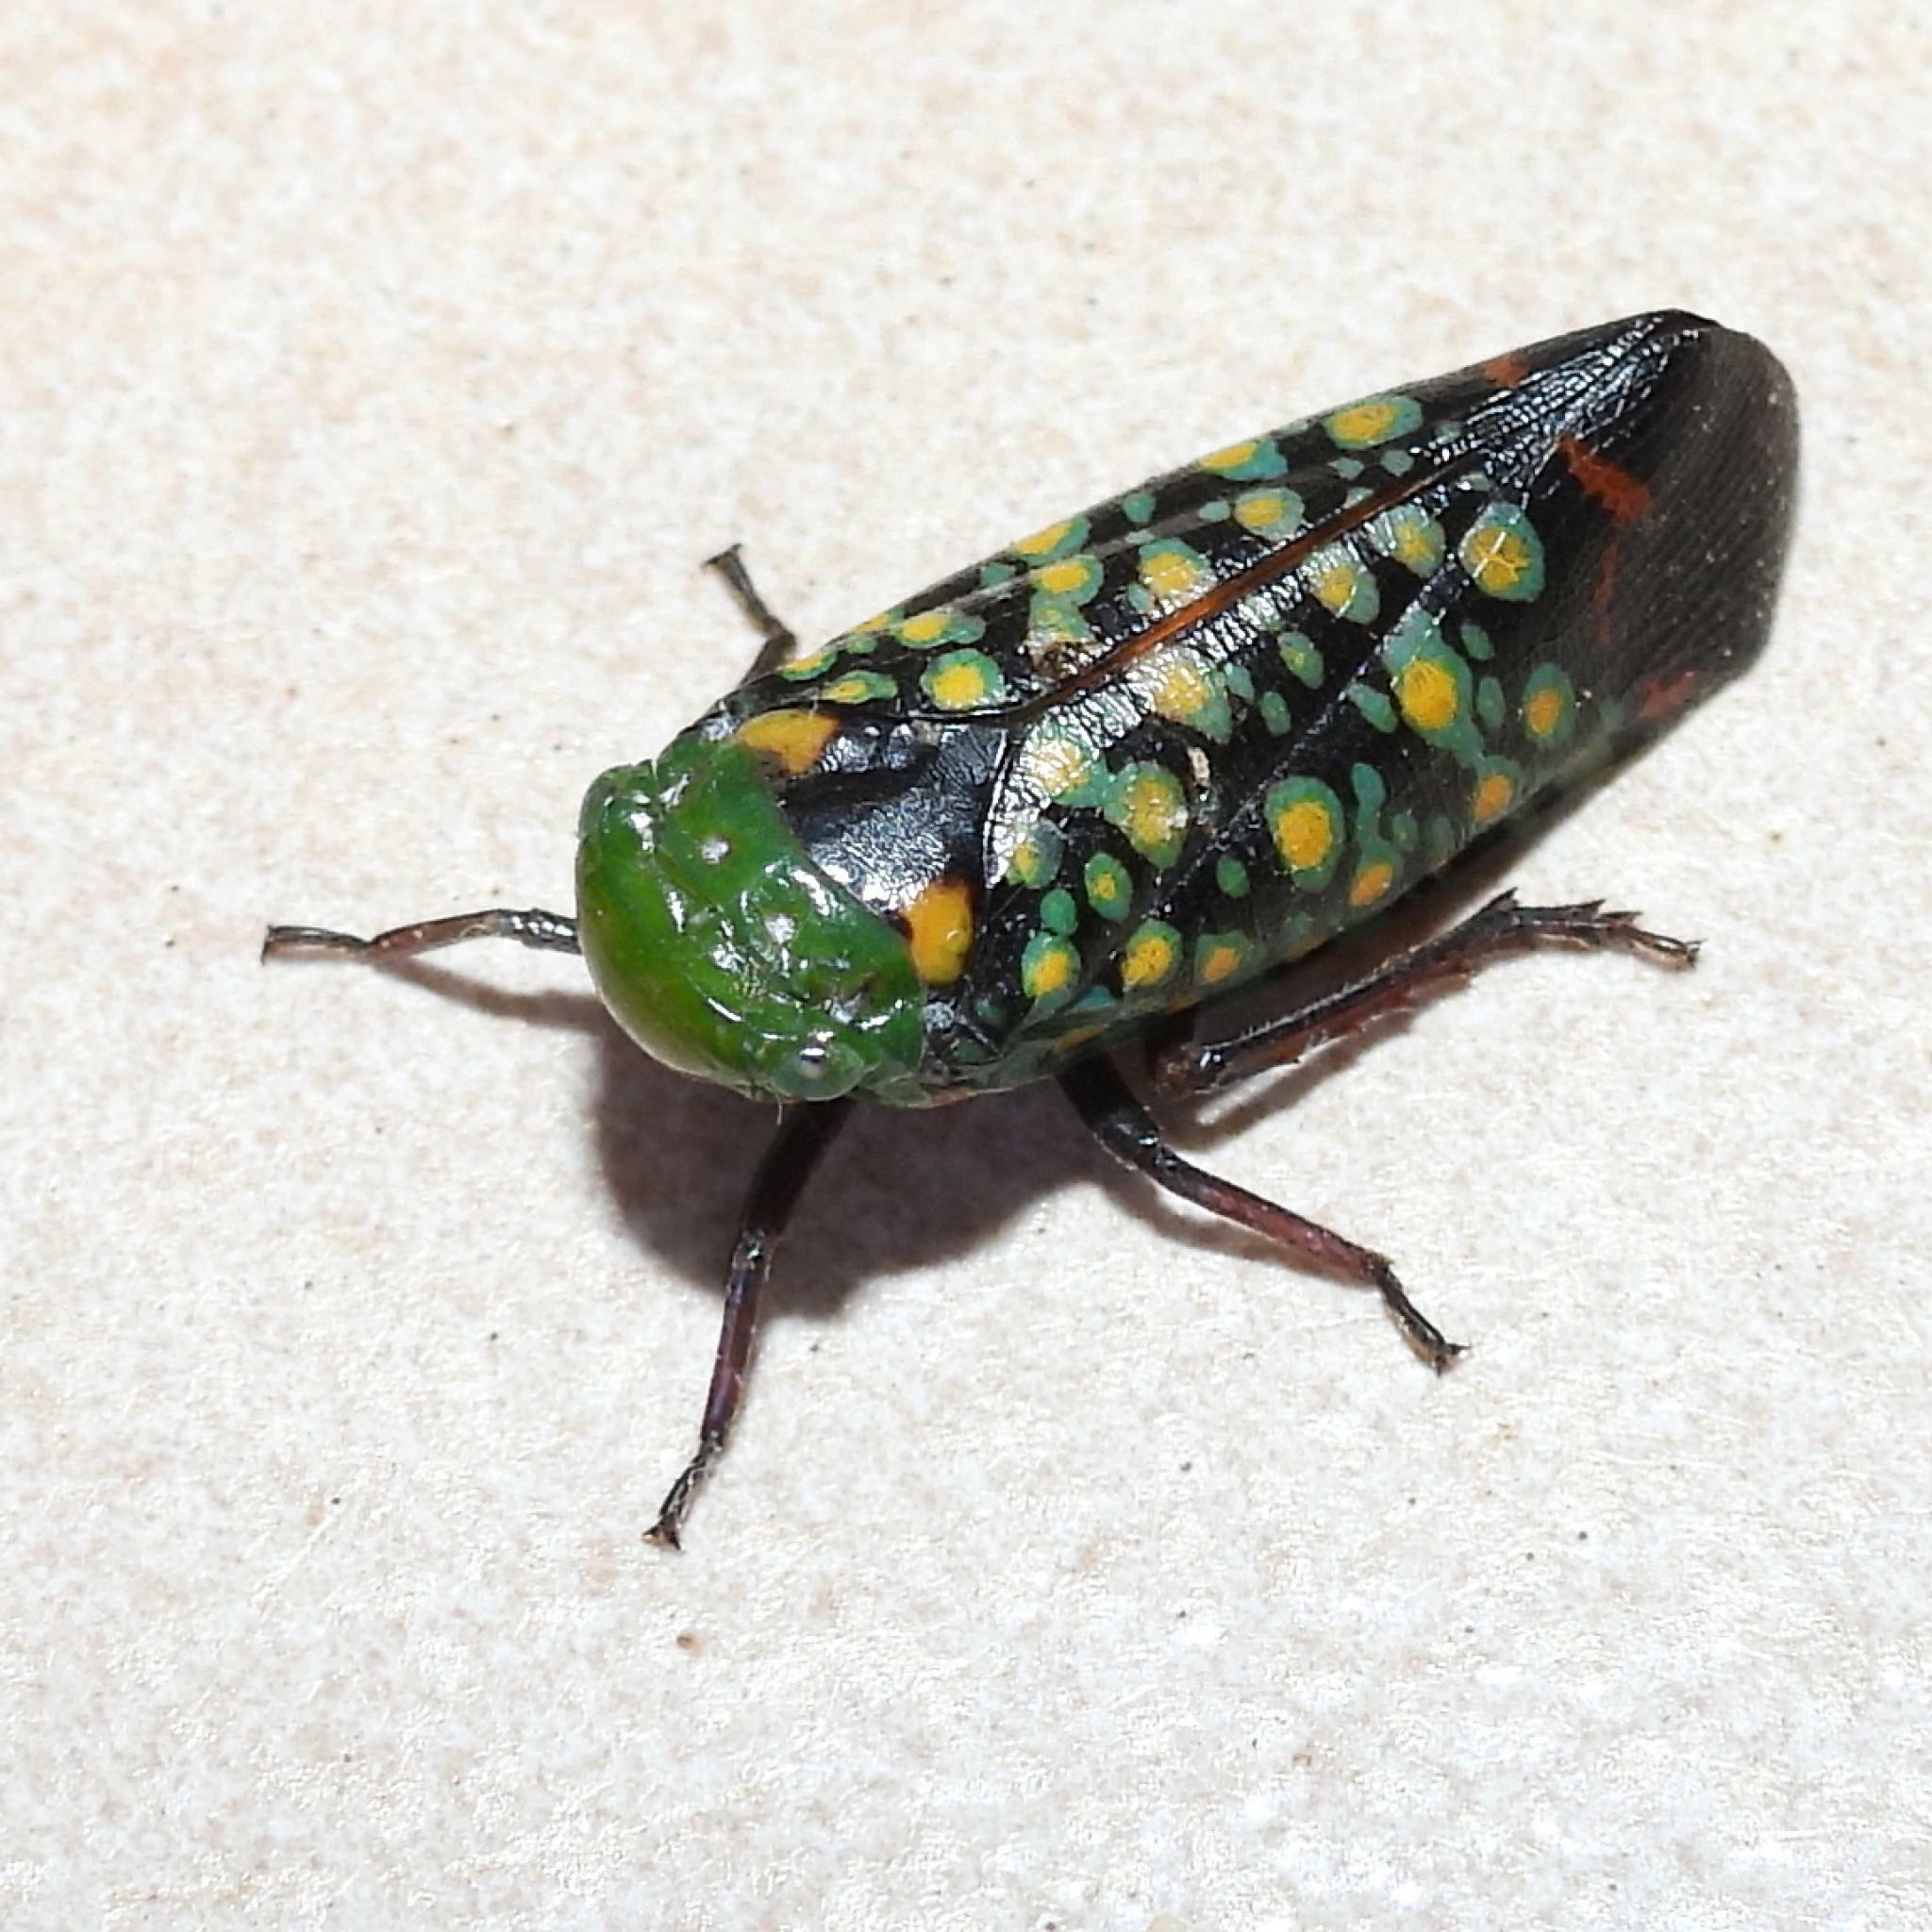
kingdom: Animalia
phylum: Arthropoda
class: Insecta
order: Hemiptera
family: Fulgoridae
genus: Eddara
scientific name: Eddara euchroma
